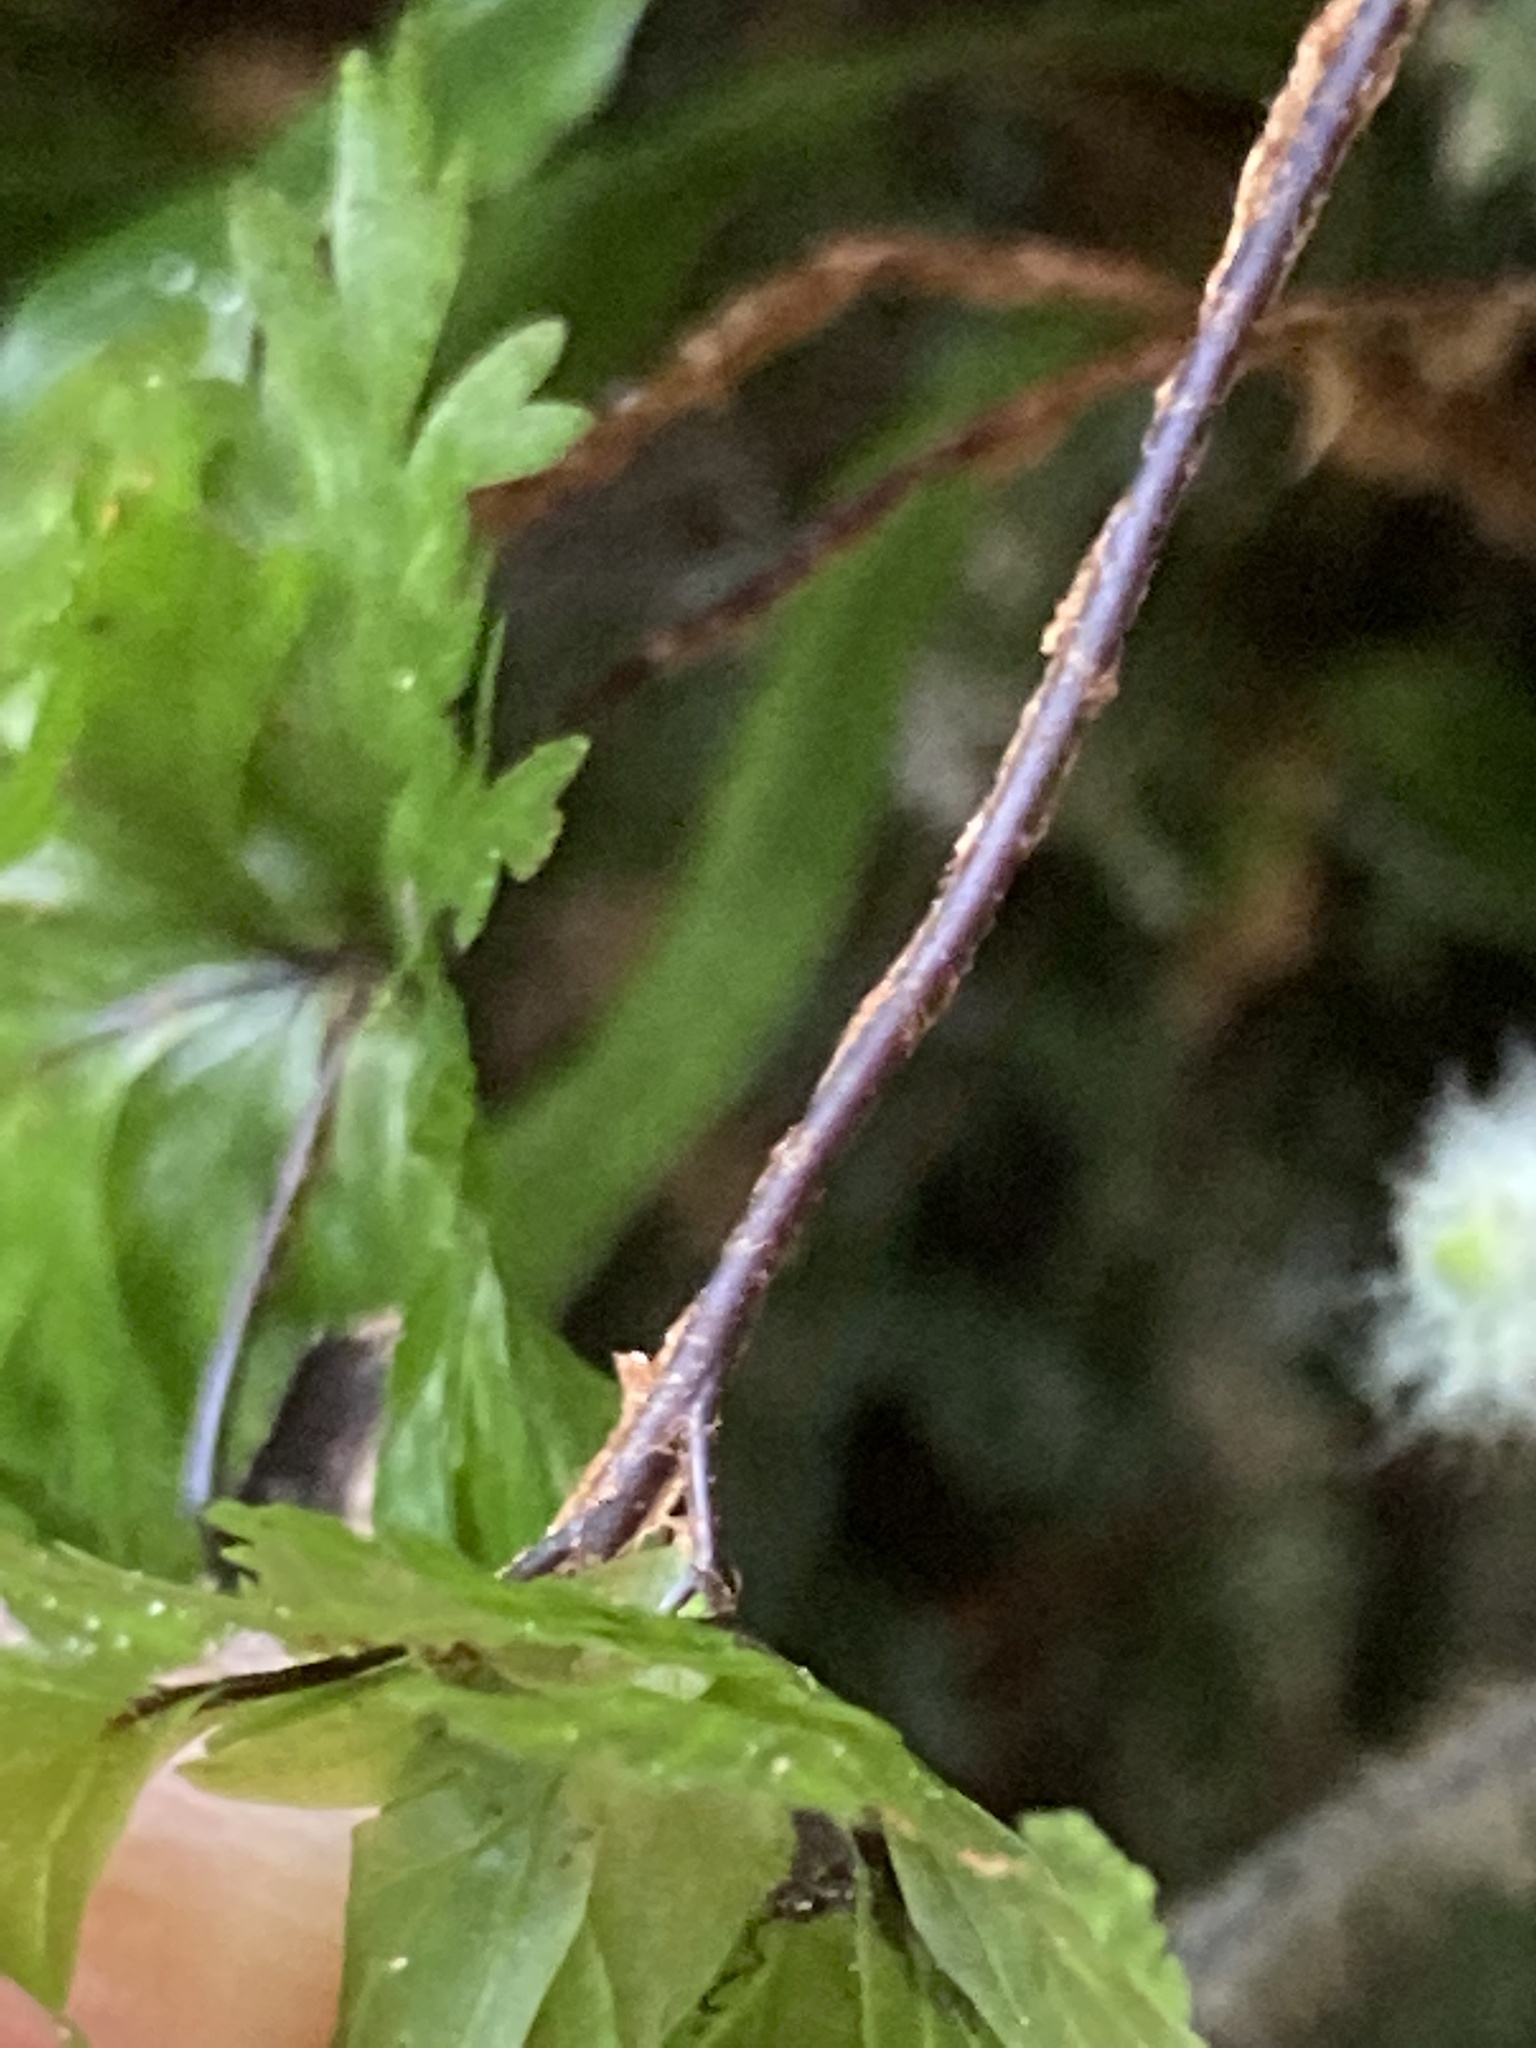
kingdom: Plantae
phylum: Tracheophyta
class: Polypodiopsida
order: Hymenophyllales
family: Hymenophyllaceae
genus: Hymenophyllum
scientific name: Hymenophyllum flabellatum
